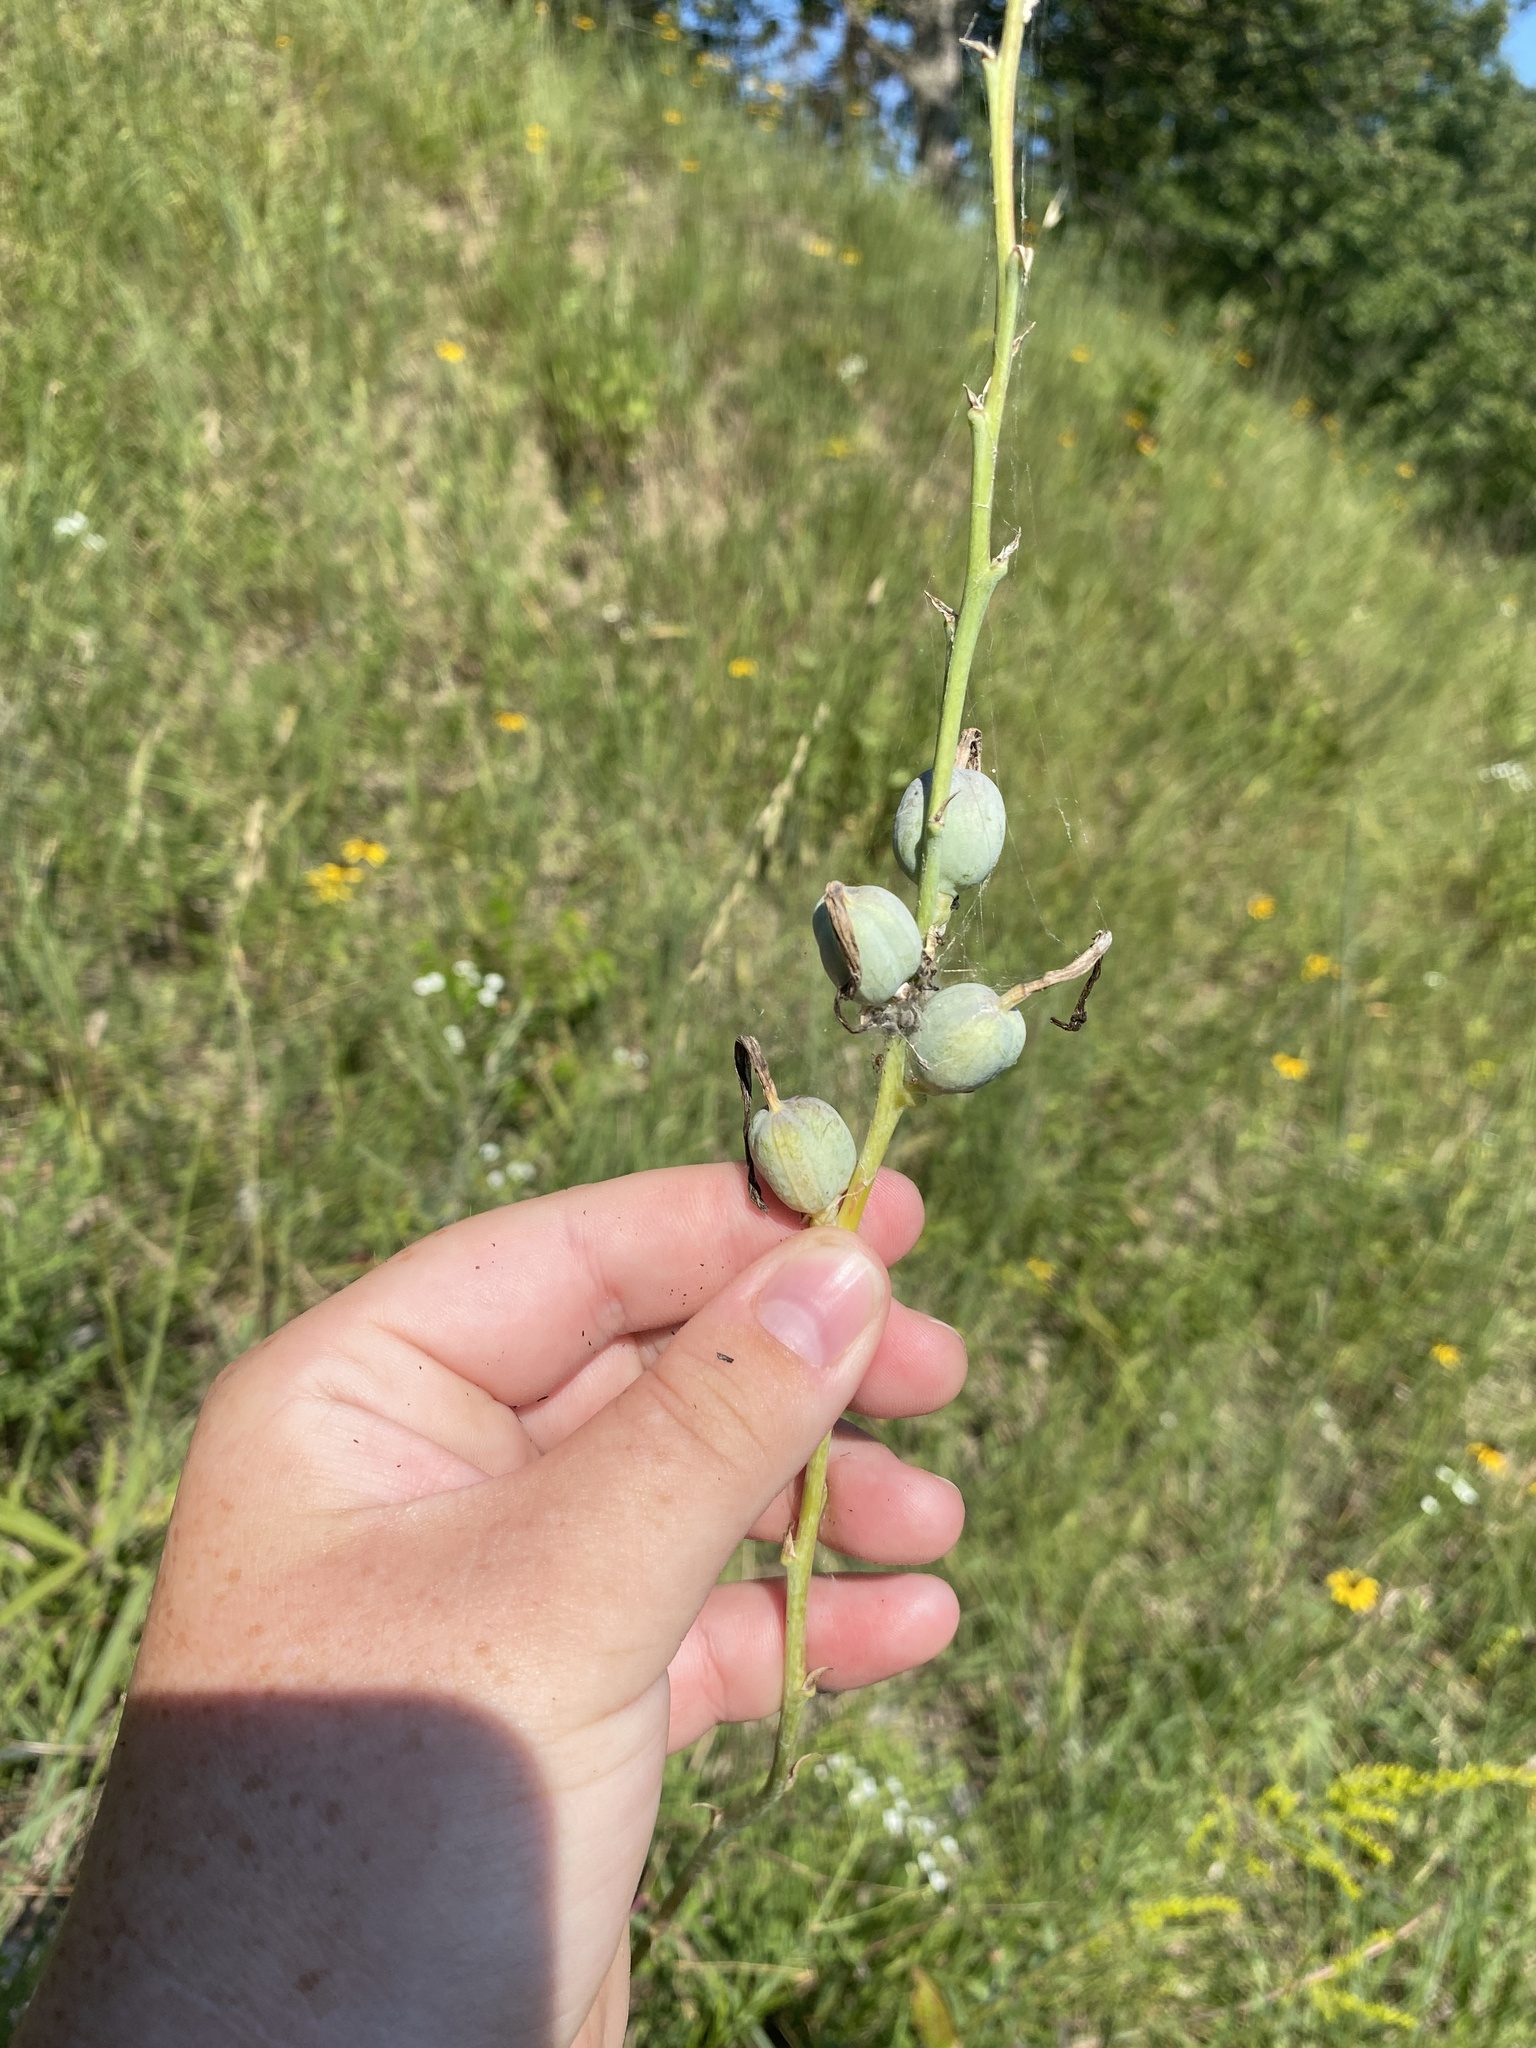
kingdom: Plantae
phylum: Tracheophyta
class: Liliopsida
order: Asparagales
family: Asparagaceae
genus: Agave
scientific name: Agave virginica
